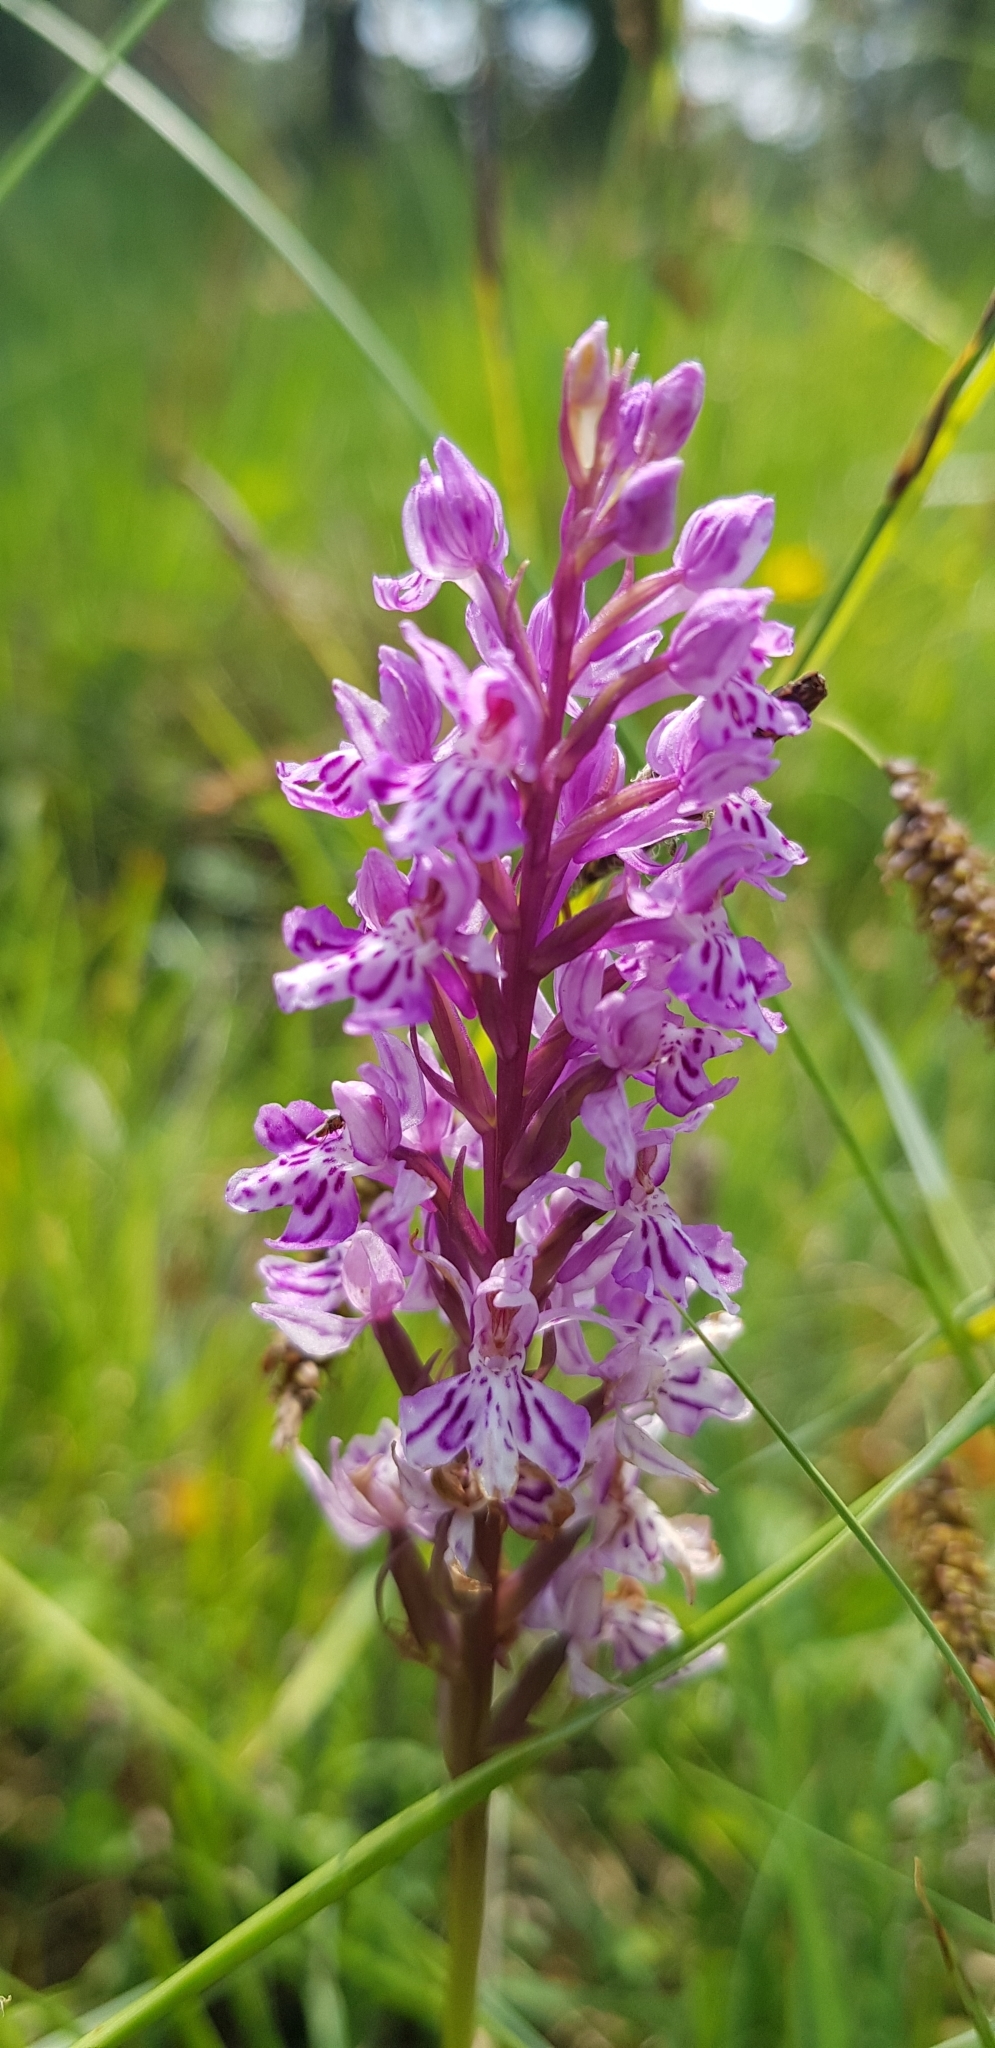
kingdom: Plantae
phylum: Tracheophyta
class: Liliopsida
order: Asparagales
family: Orchidaceae
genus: Dactylorhiza
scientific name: Dactylorhiza maculata
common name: Heath spotted-orchid
